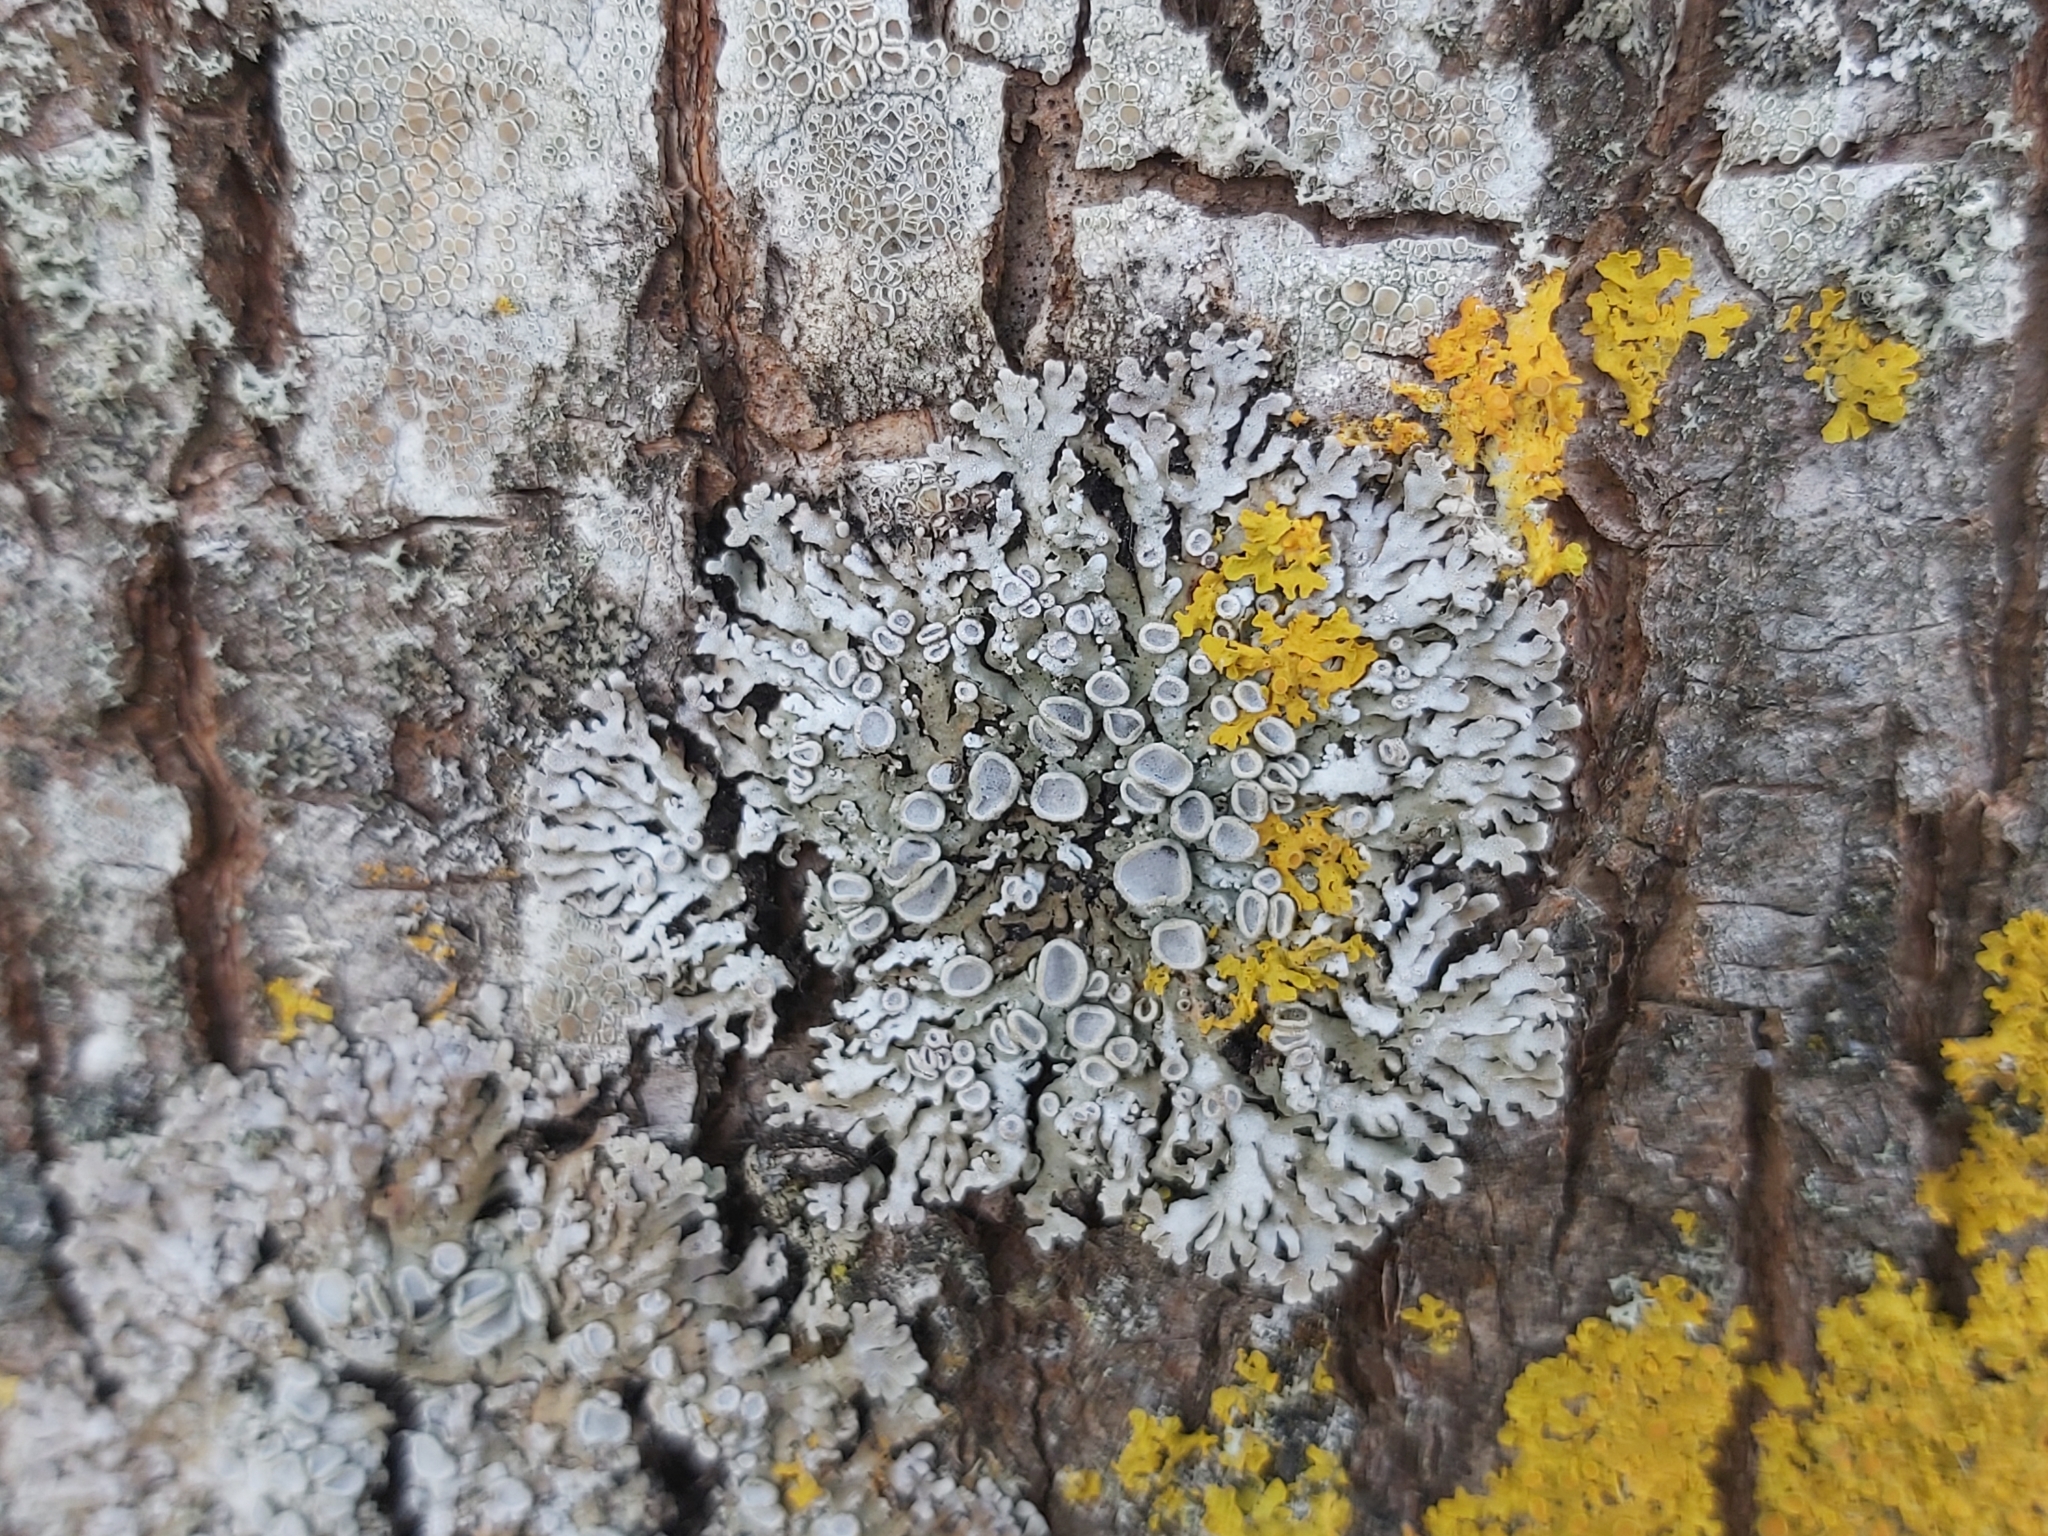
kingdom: Fungi
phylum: Ascomycota
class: Lecanoromycetes
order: Caliciales
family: Physciaceae
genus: Physconia
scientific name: Physconia distorta
